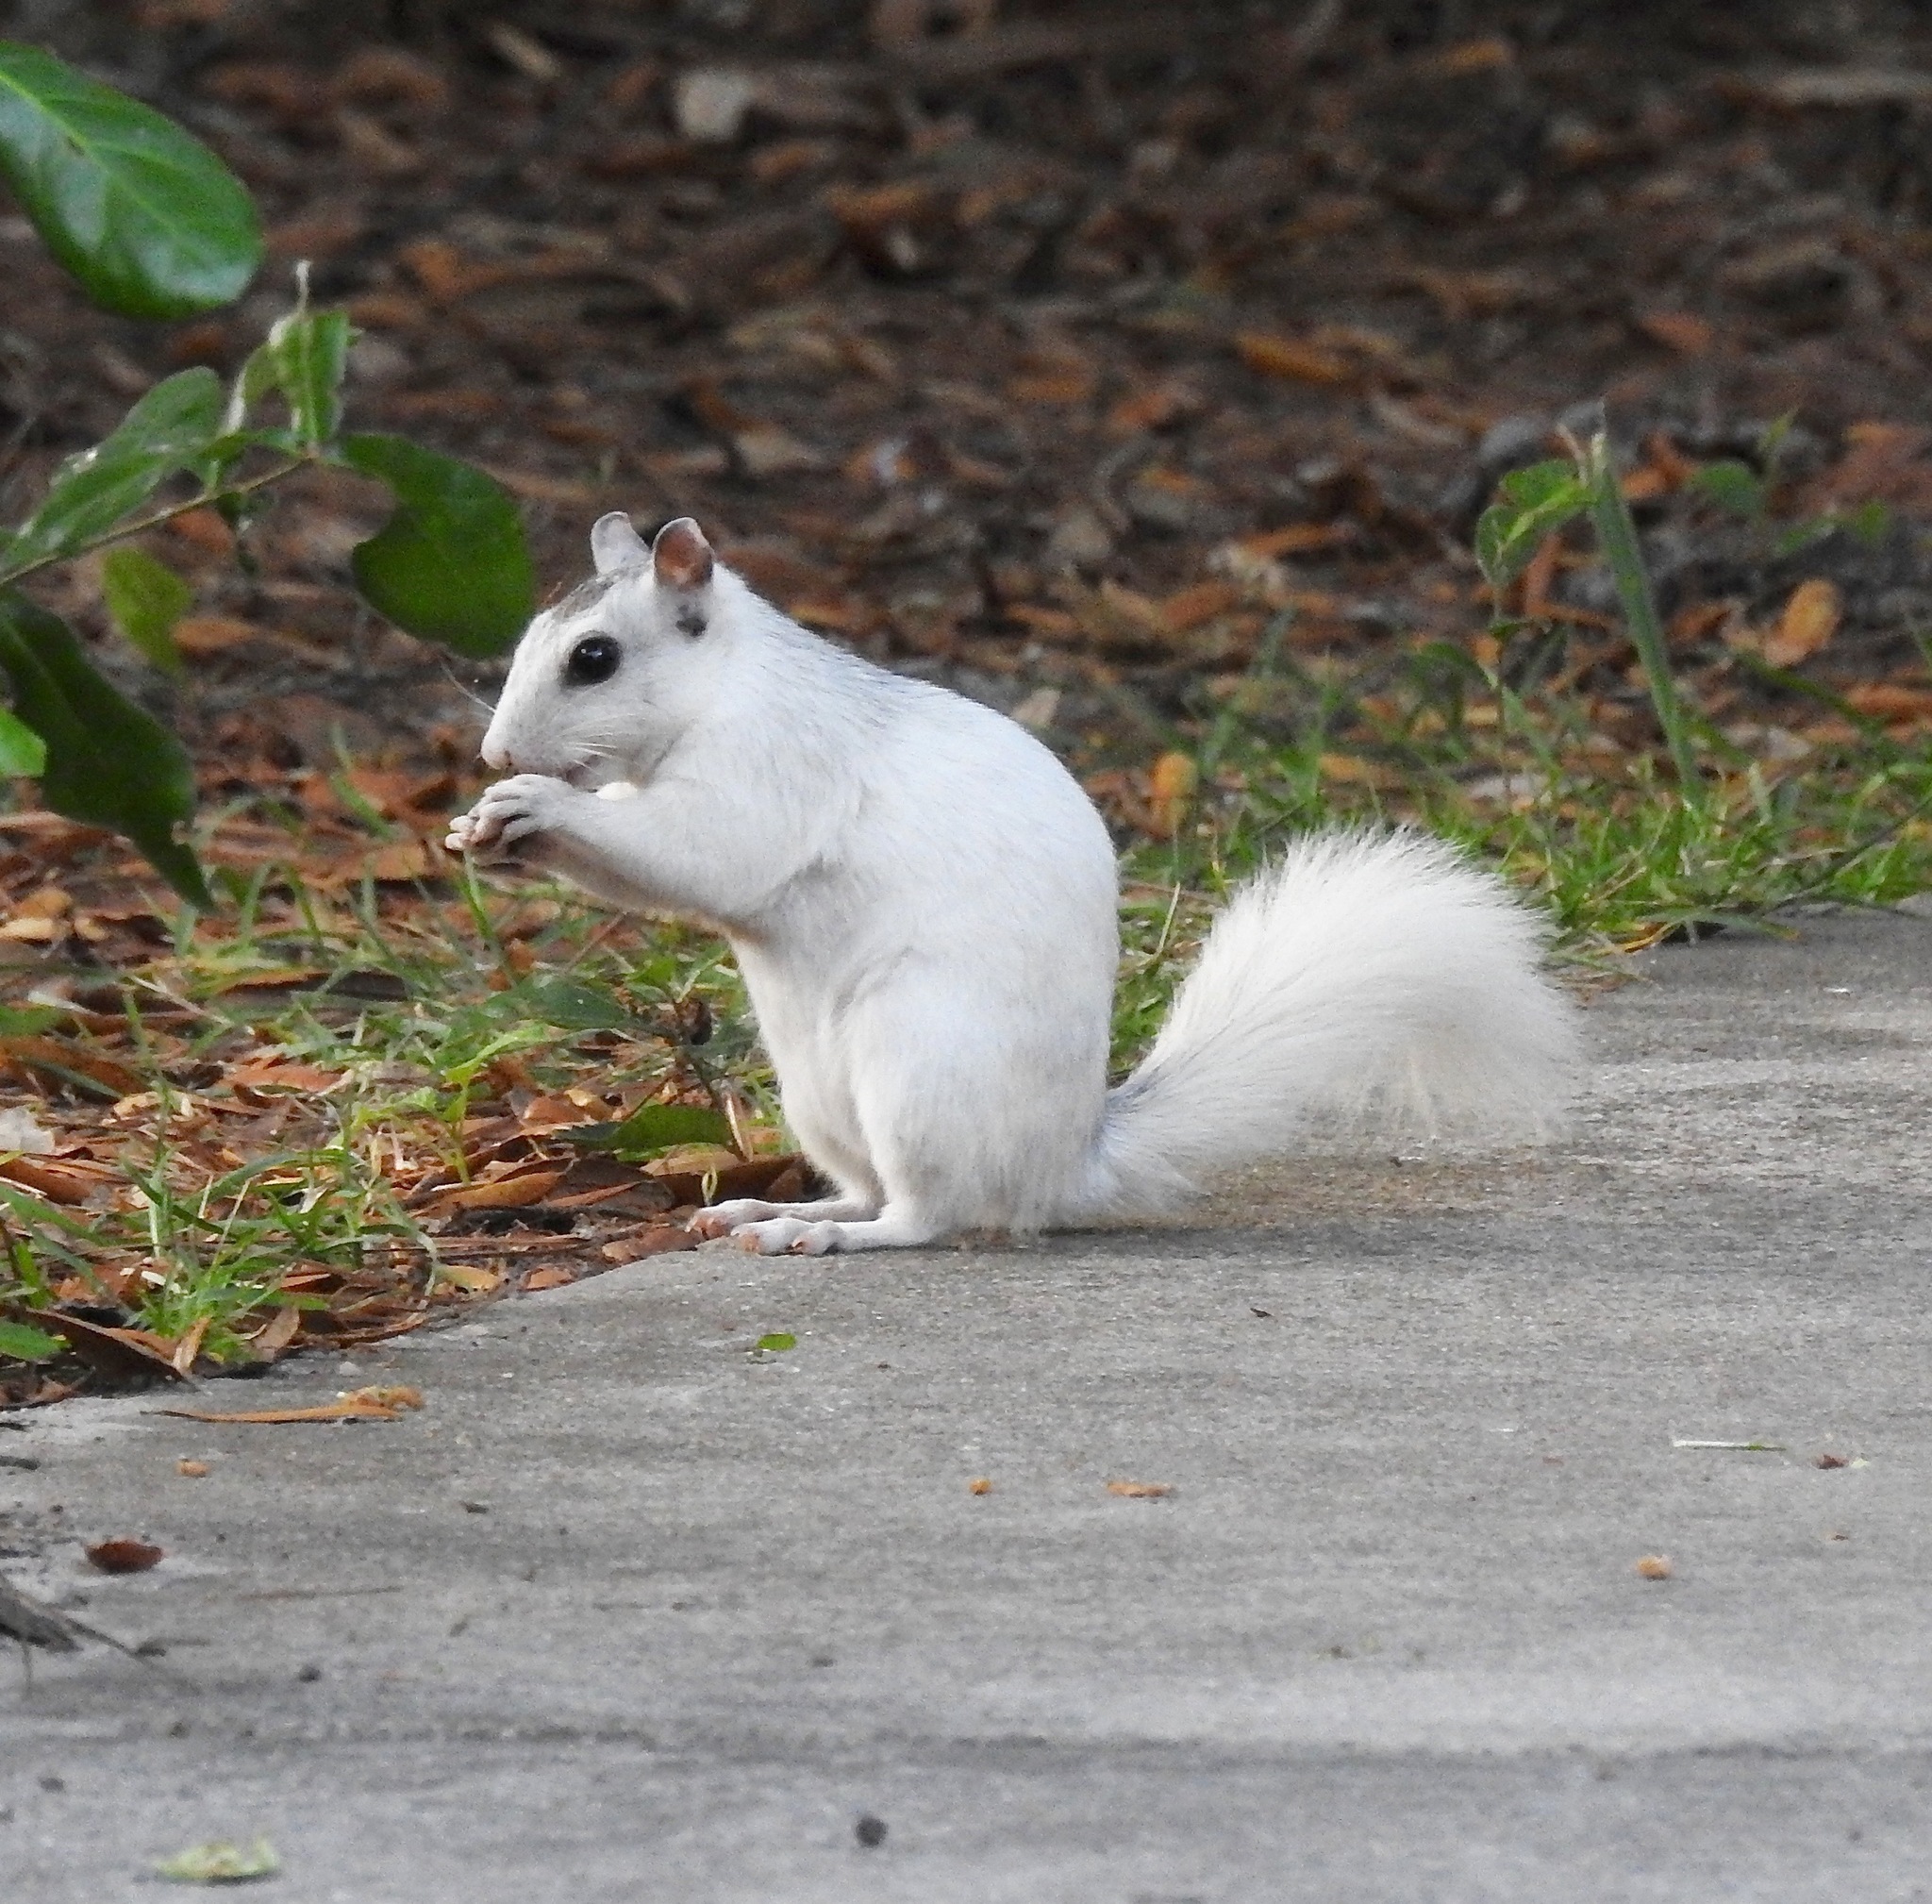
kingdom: Animalia
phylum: Chordata
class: Mammalia
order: Rodentia
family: Sciuridae
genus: Sciurus
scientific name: Sciurus carolinensis
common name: Eastern gray squirrel
